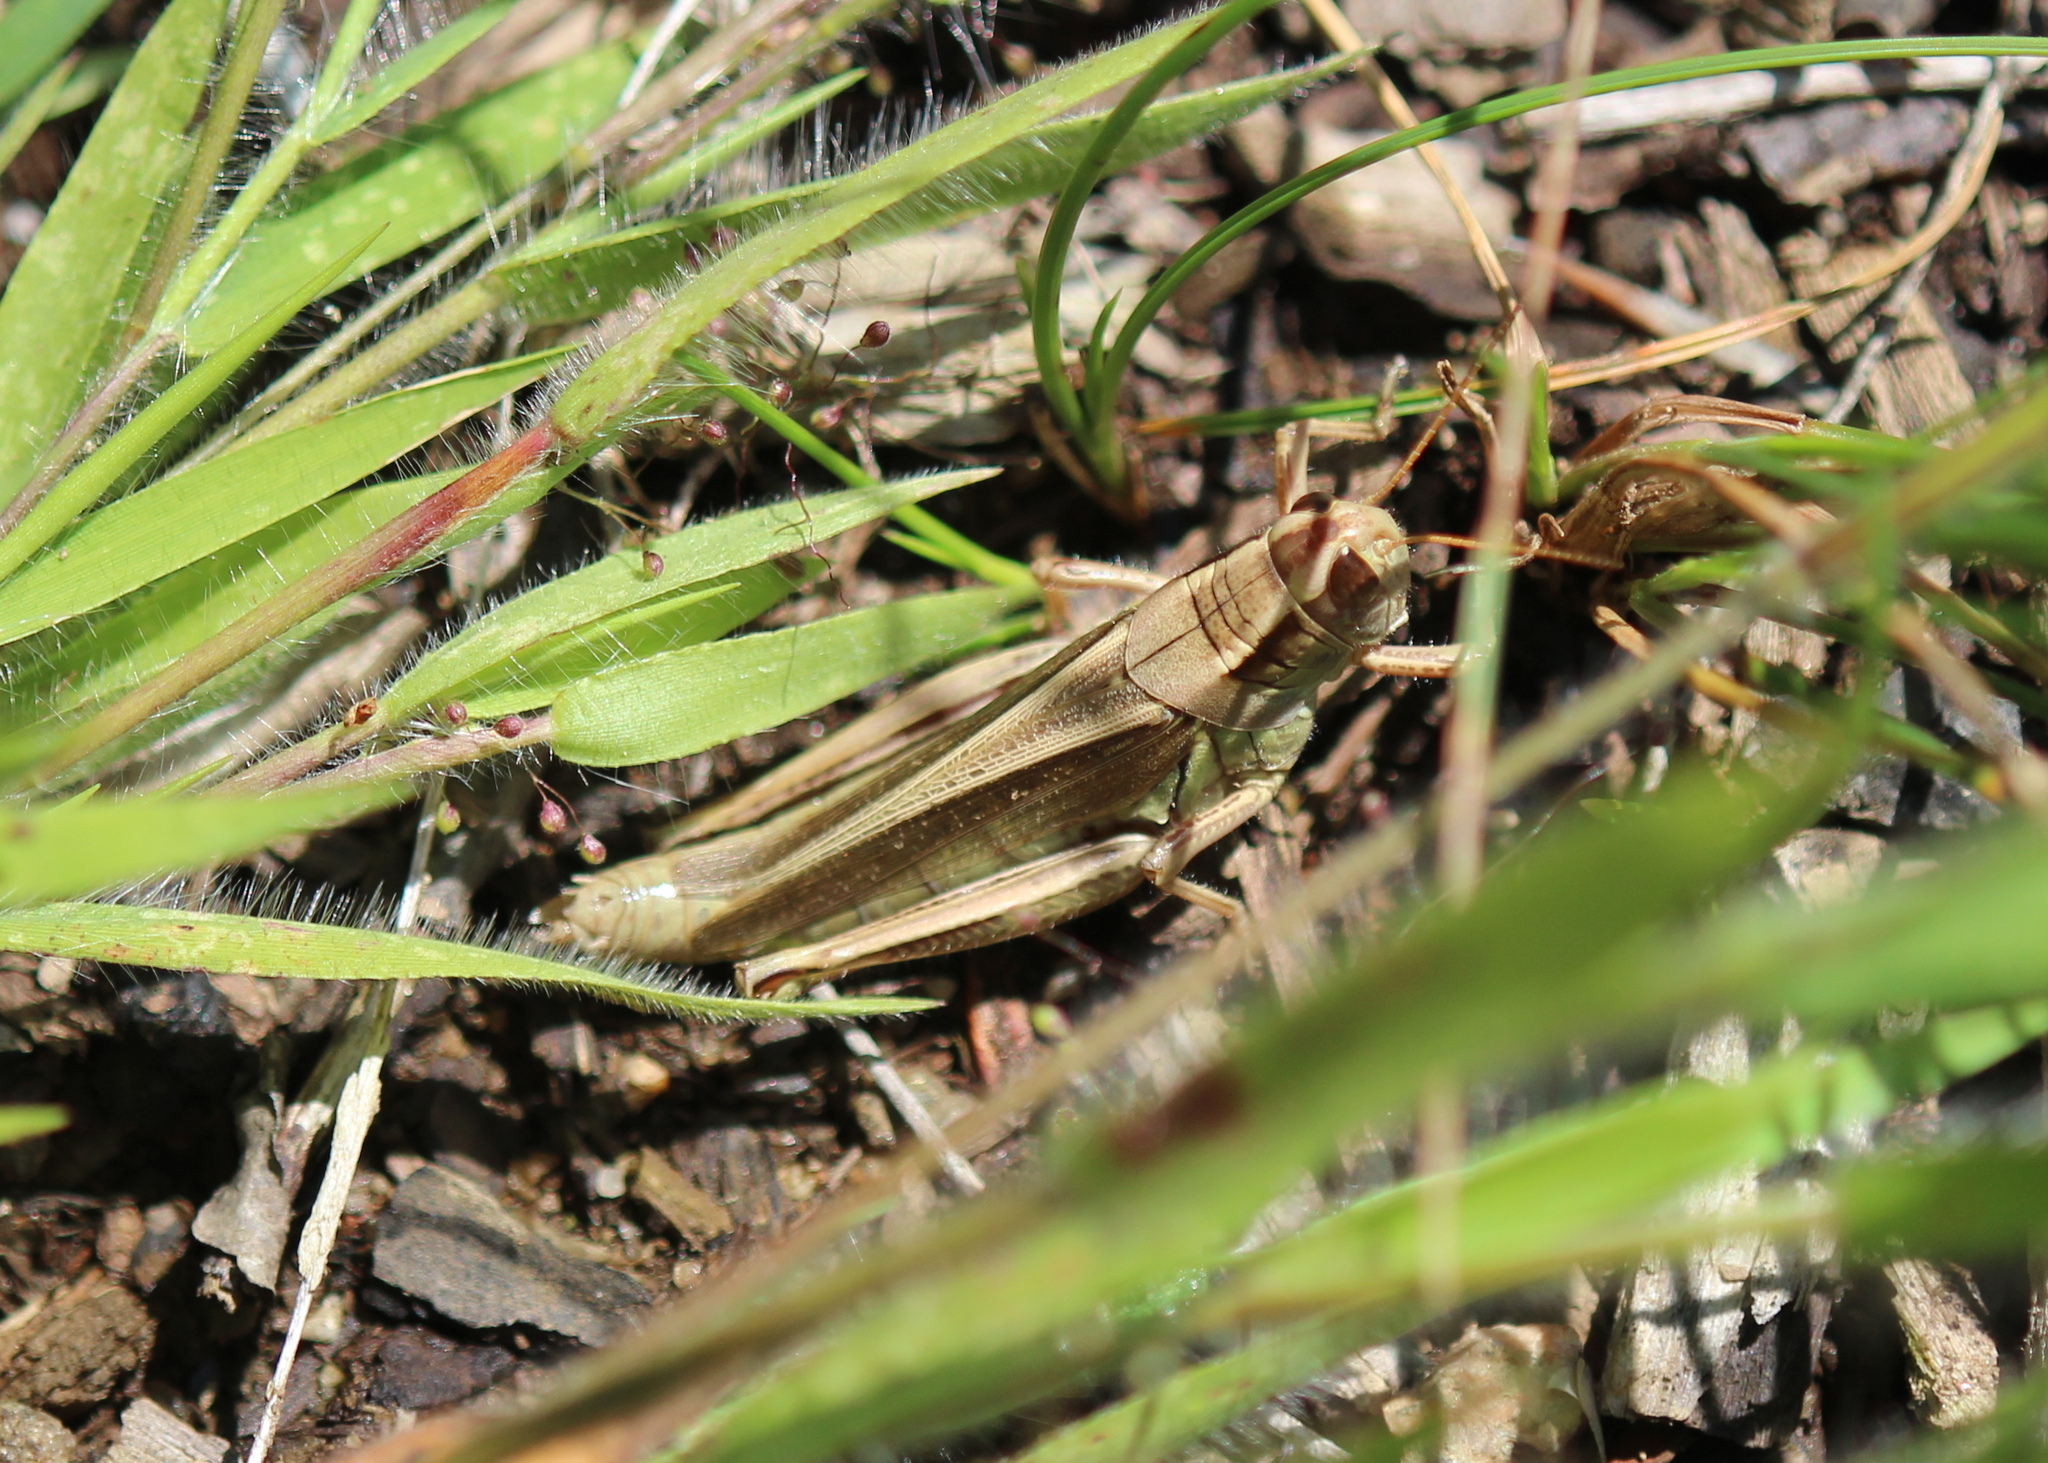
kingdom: Animalia
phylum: Arthropoda
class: Insecta
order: Orthoptera
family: Acrididae
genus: Melanoplus
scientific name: Melanoplus bivittatus
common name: Two-striped grasshopper
